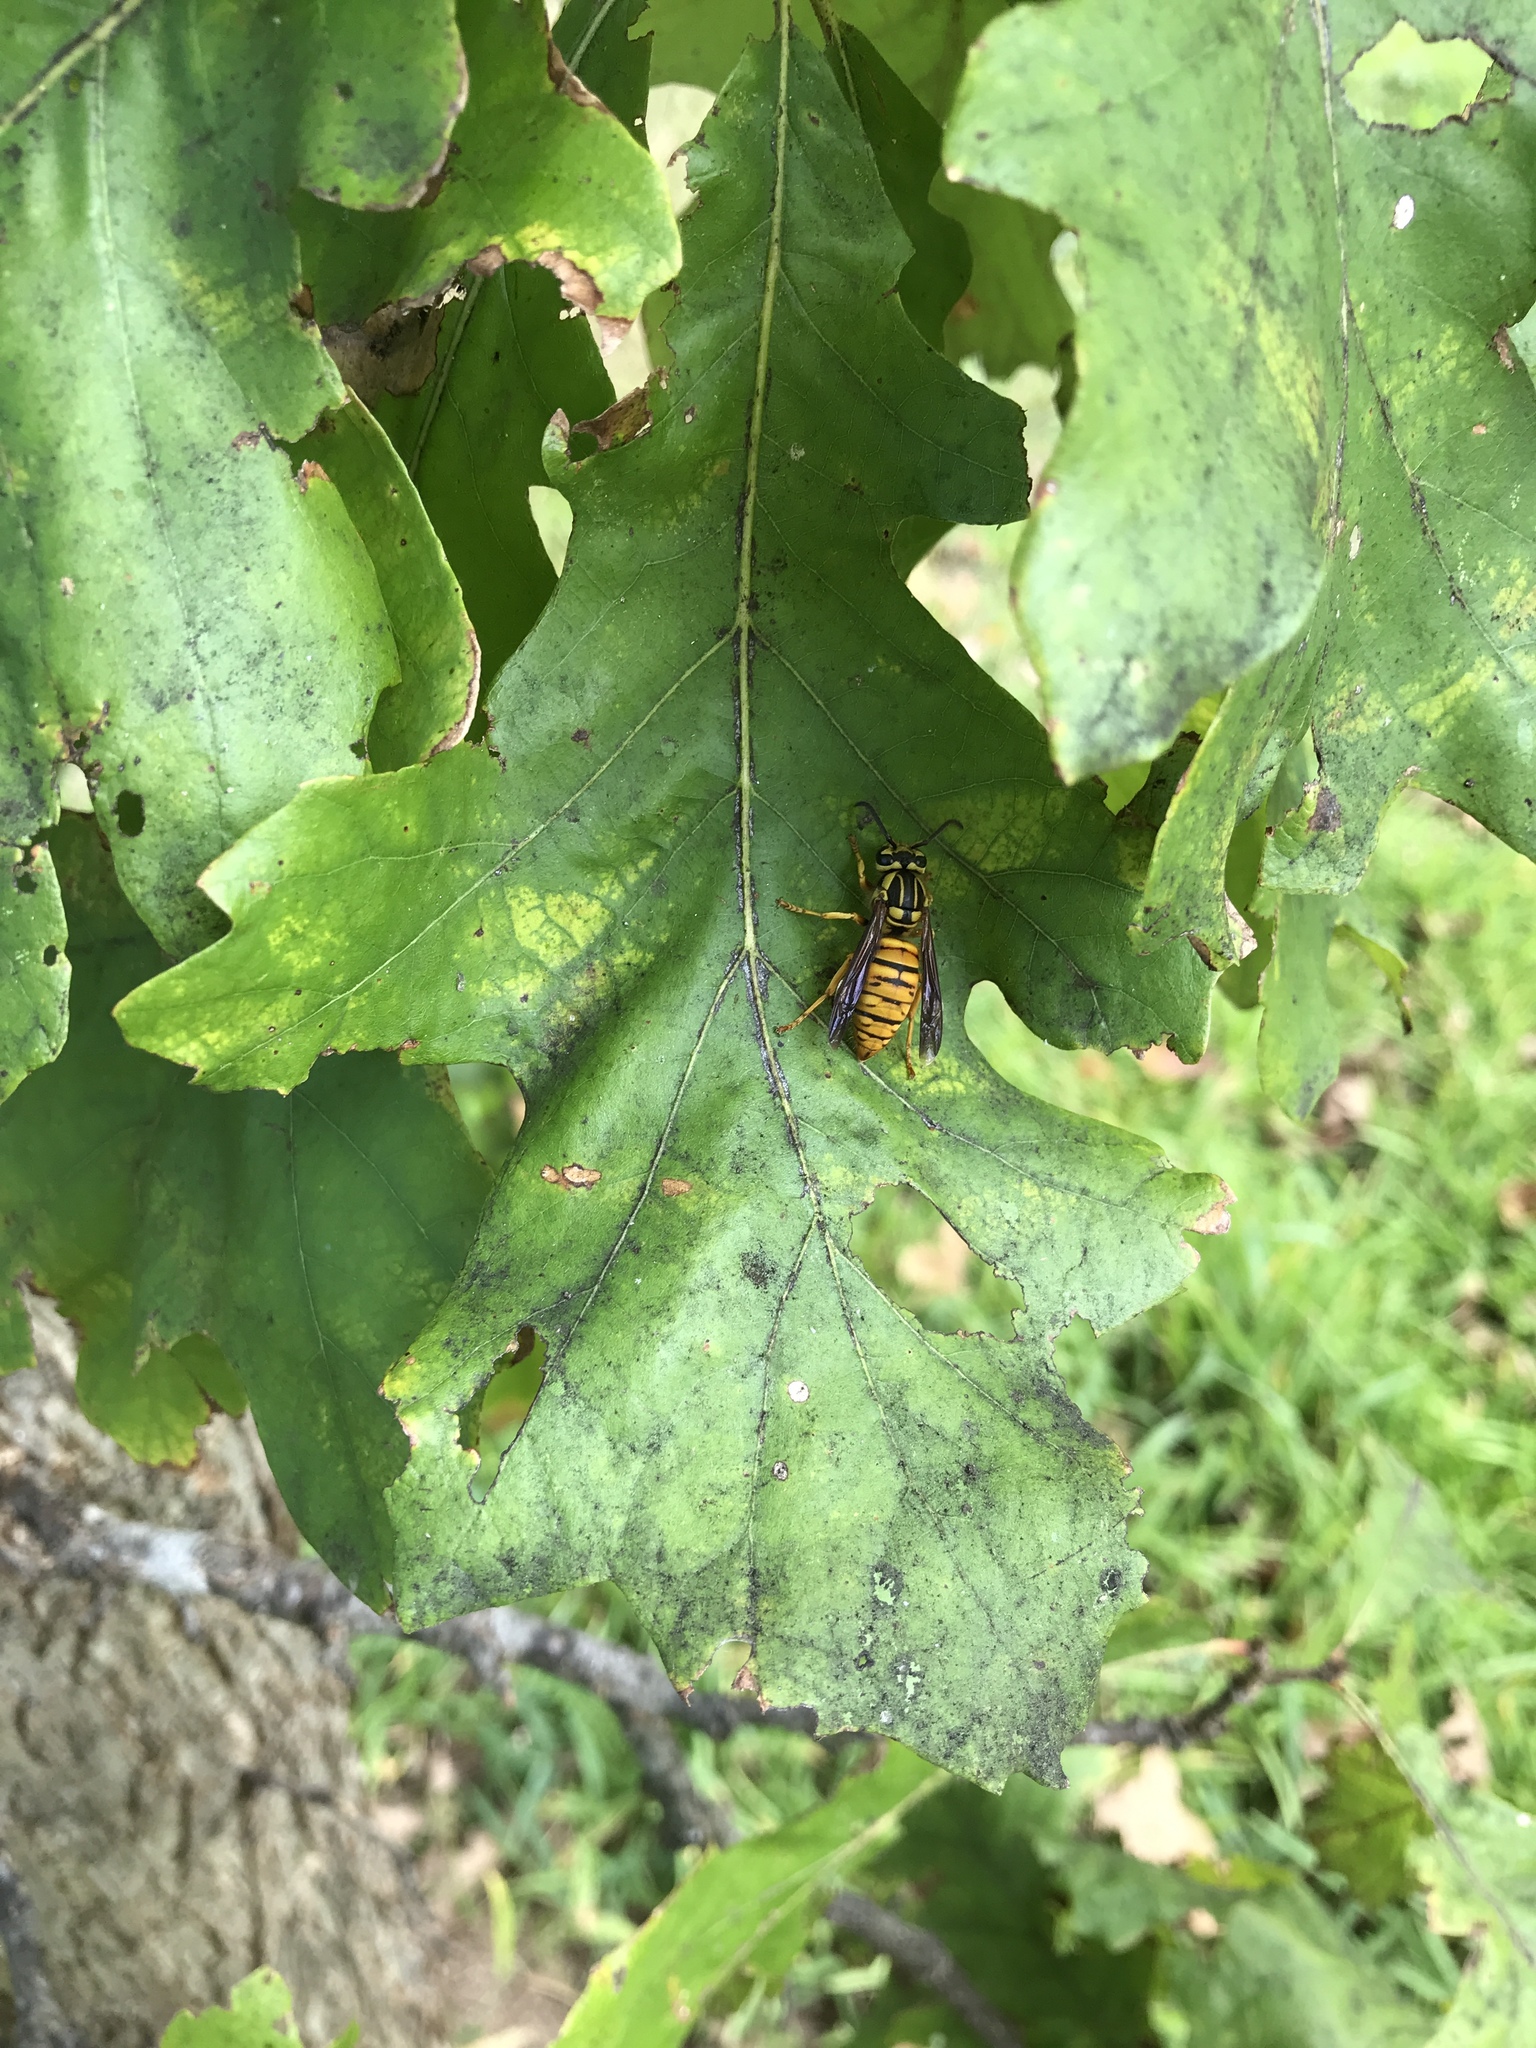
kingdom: Animalia
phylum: Arthropoda
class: Insecta
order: Hymenoptera
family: Vespidae
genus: Vespula
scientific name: Vespula squamosa
